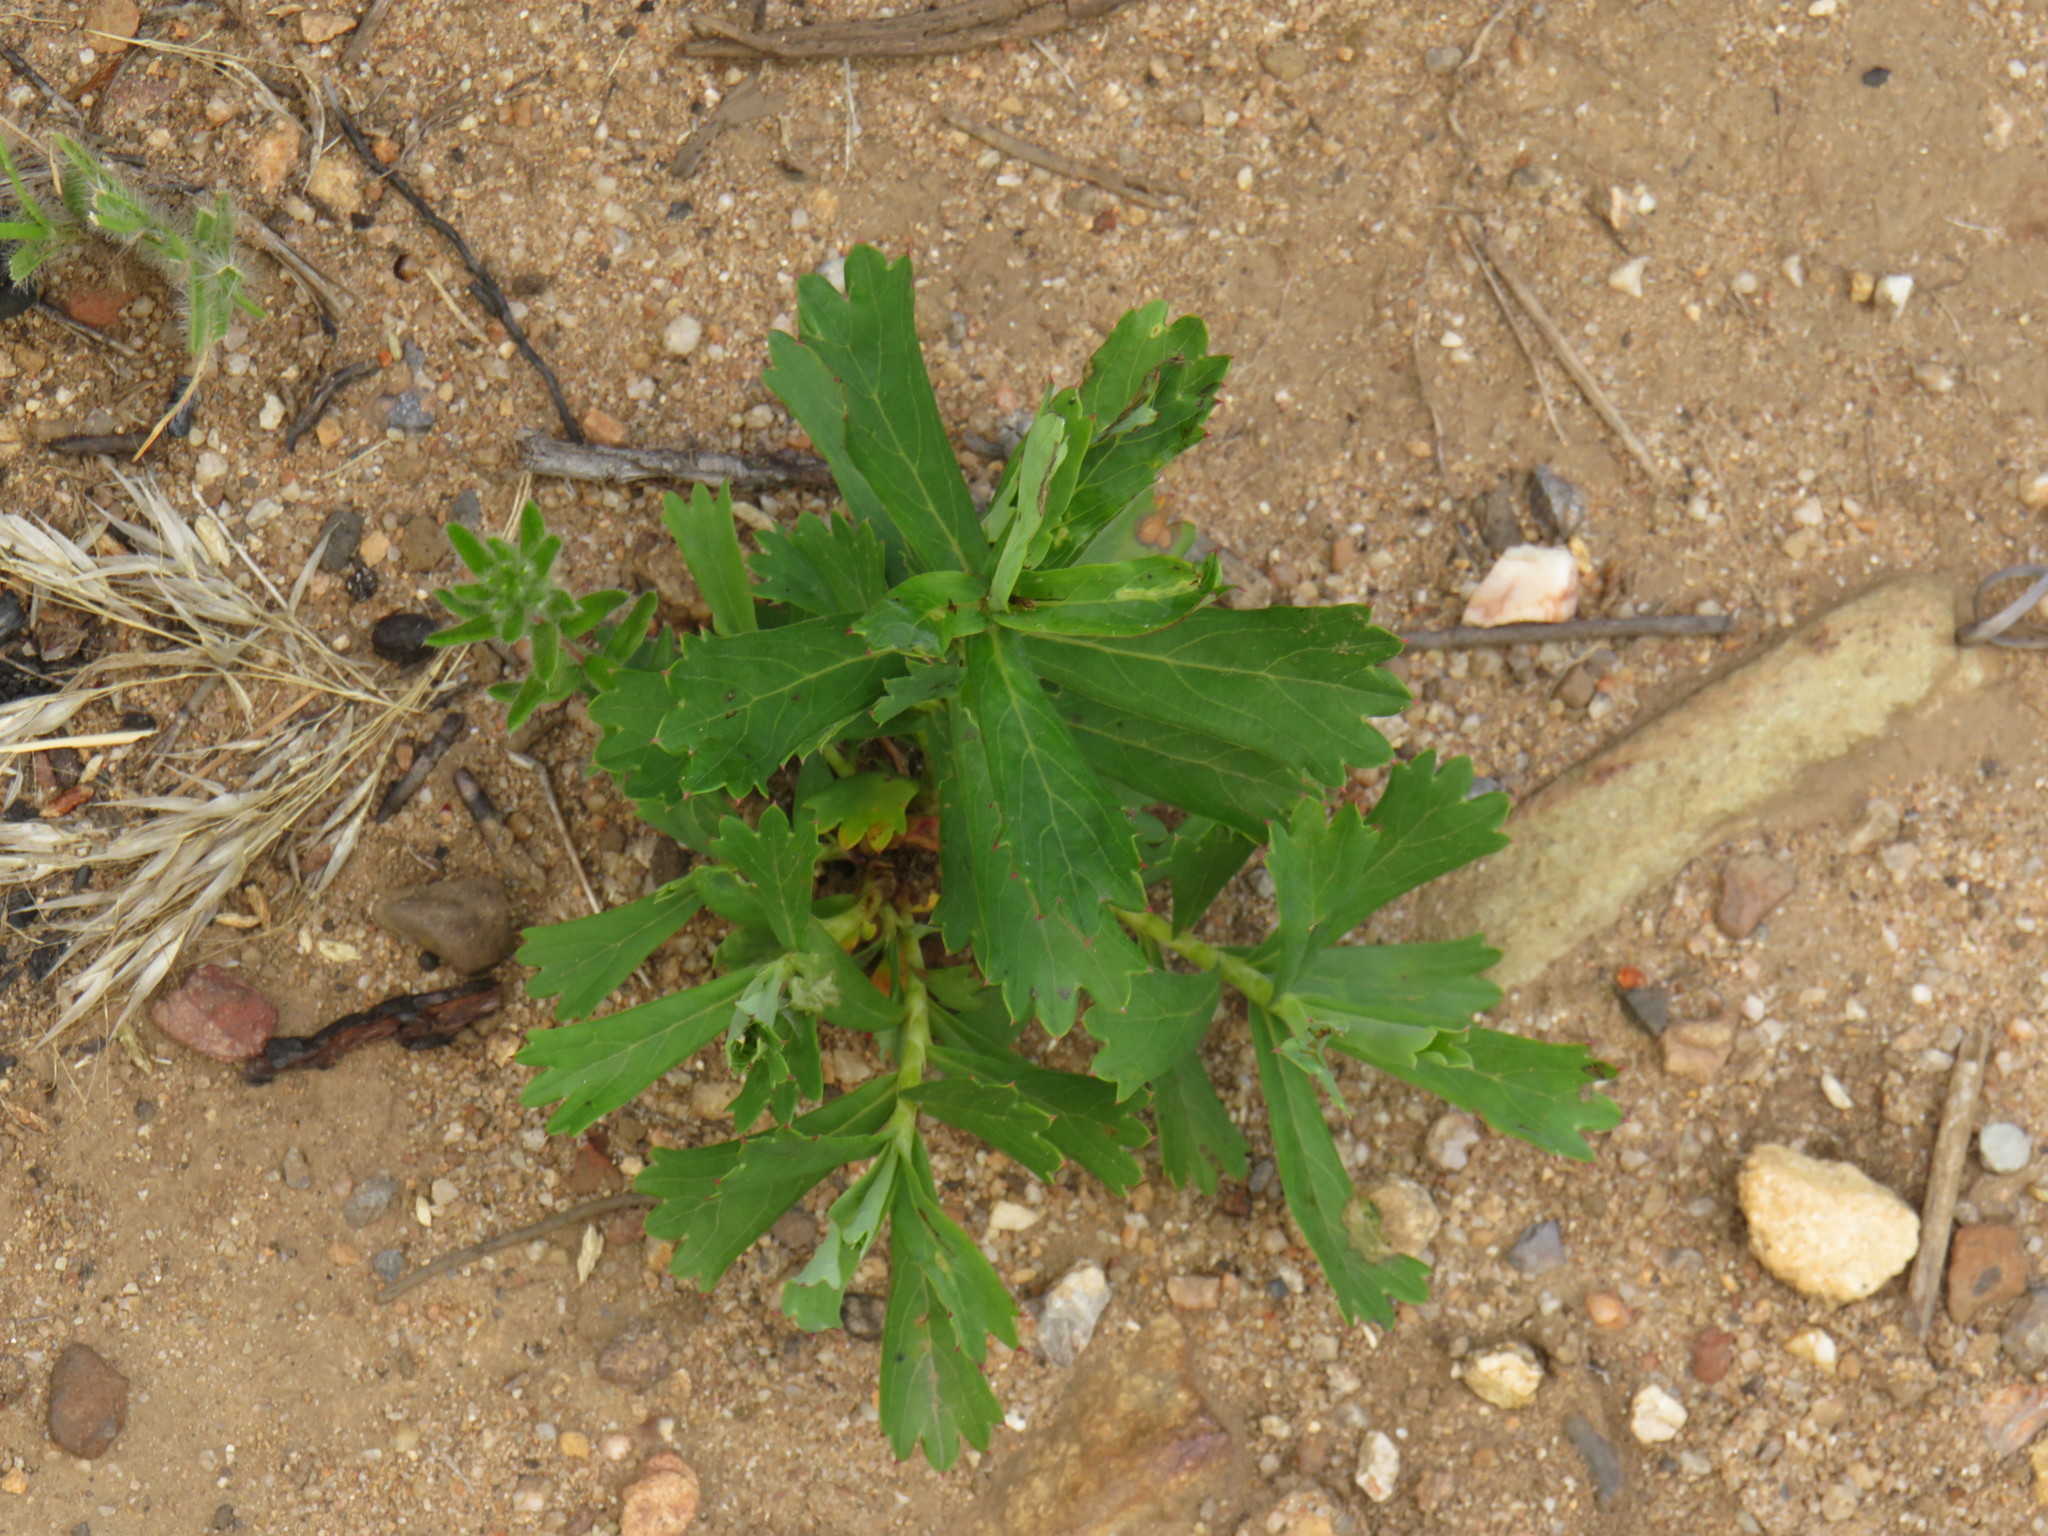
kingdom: Plantae
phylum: Tracheophyta
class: Magnoliopsida
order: Rosales
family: Rosaceae
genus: Cliffortia
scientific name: Cliffortia cuneata
